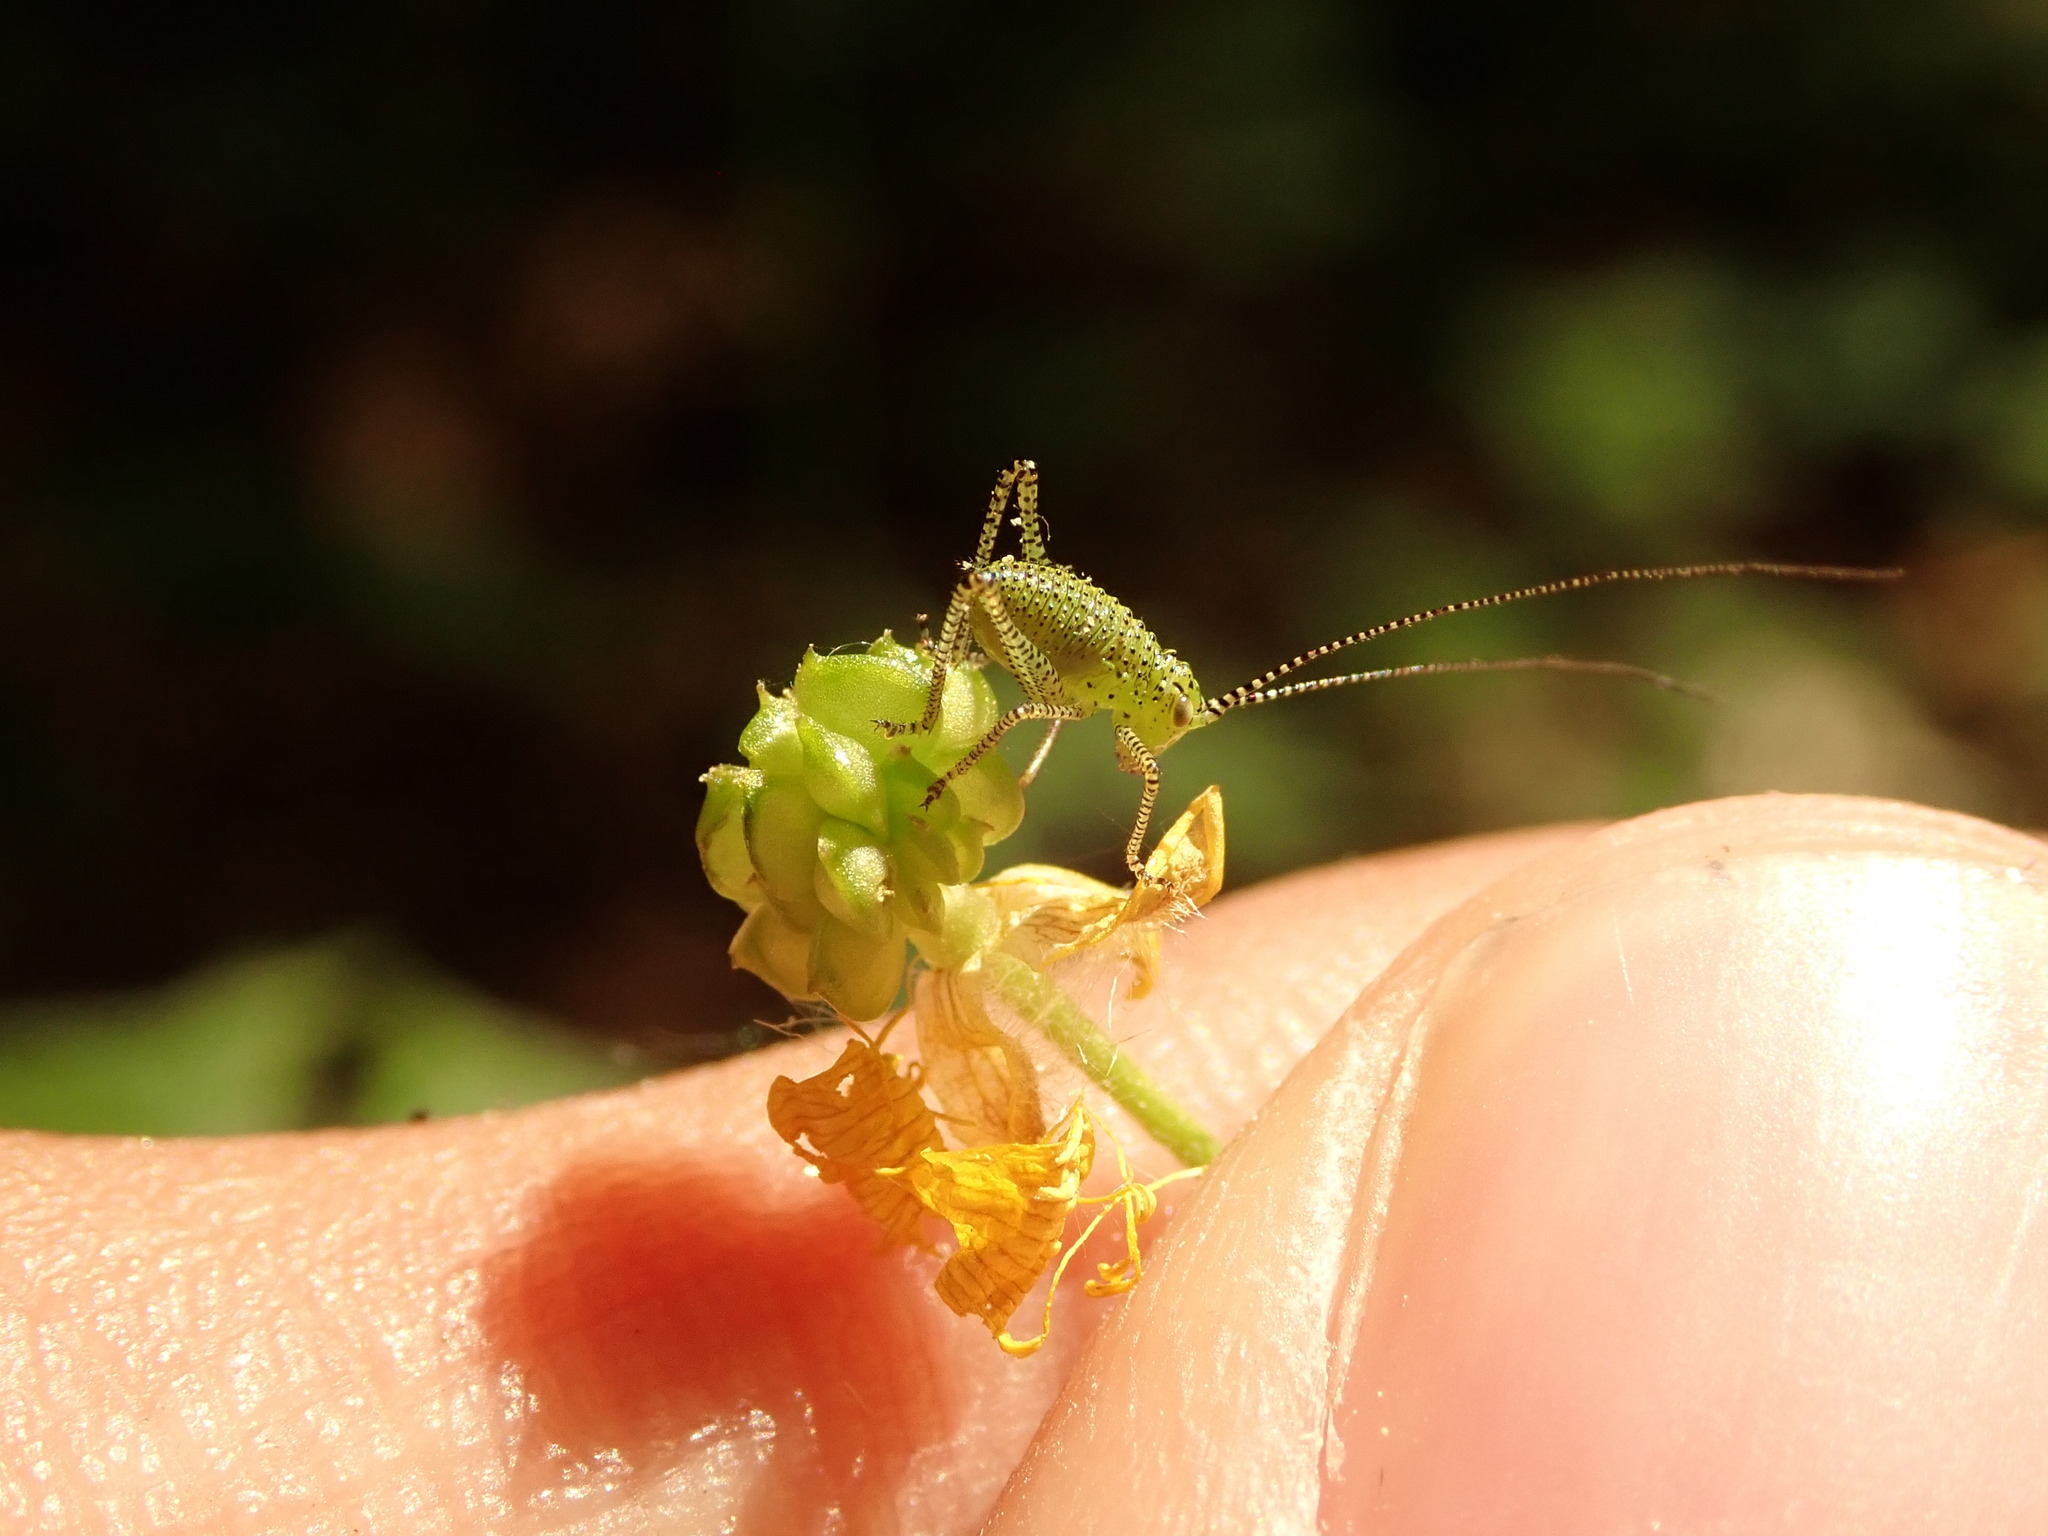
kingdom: Animalia
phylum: Arthropoda
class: Insecta
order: Orthoptera
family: Tettigoniidae
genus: Leptophyes
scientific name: Leptophyes punctatissima
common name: Speckled bush-cricket
